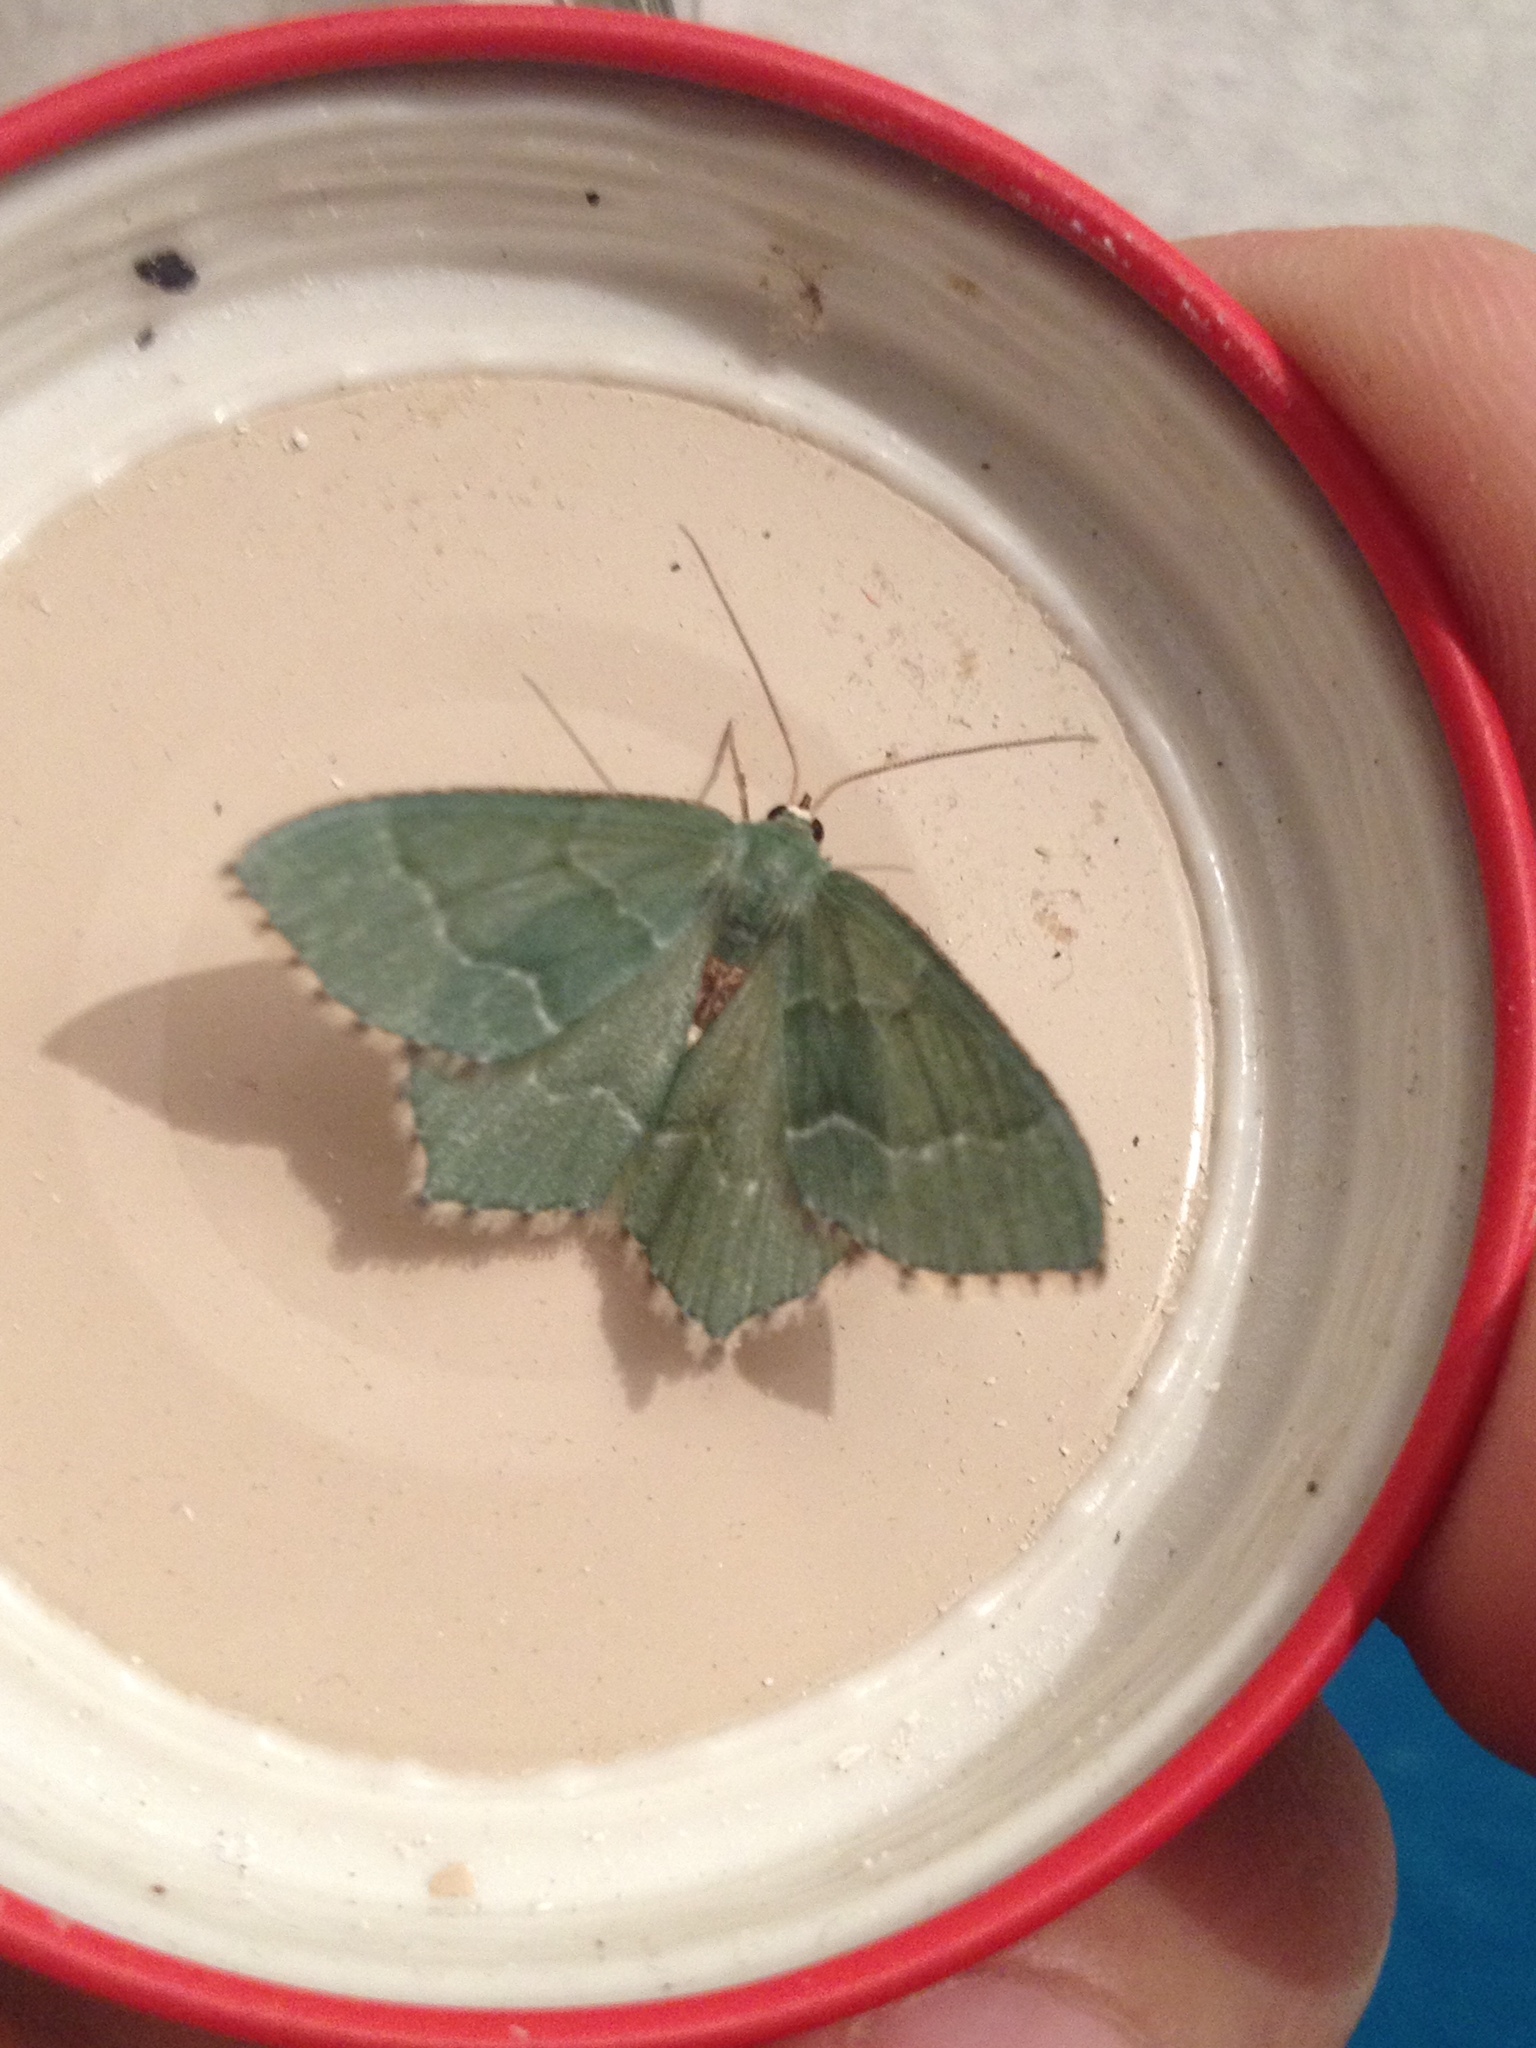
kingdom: Animalia
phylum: Arthropoda
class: Insecta
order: Lepidoptera
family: Geometridae
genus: Hemithea
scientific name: Hemithea aestivaria
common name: Common emerald
